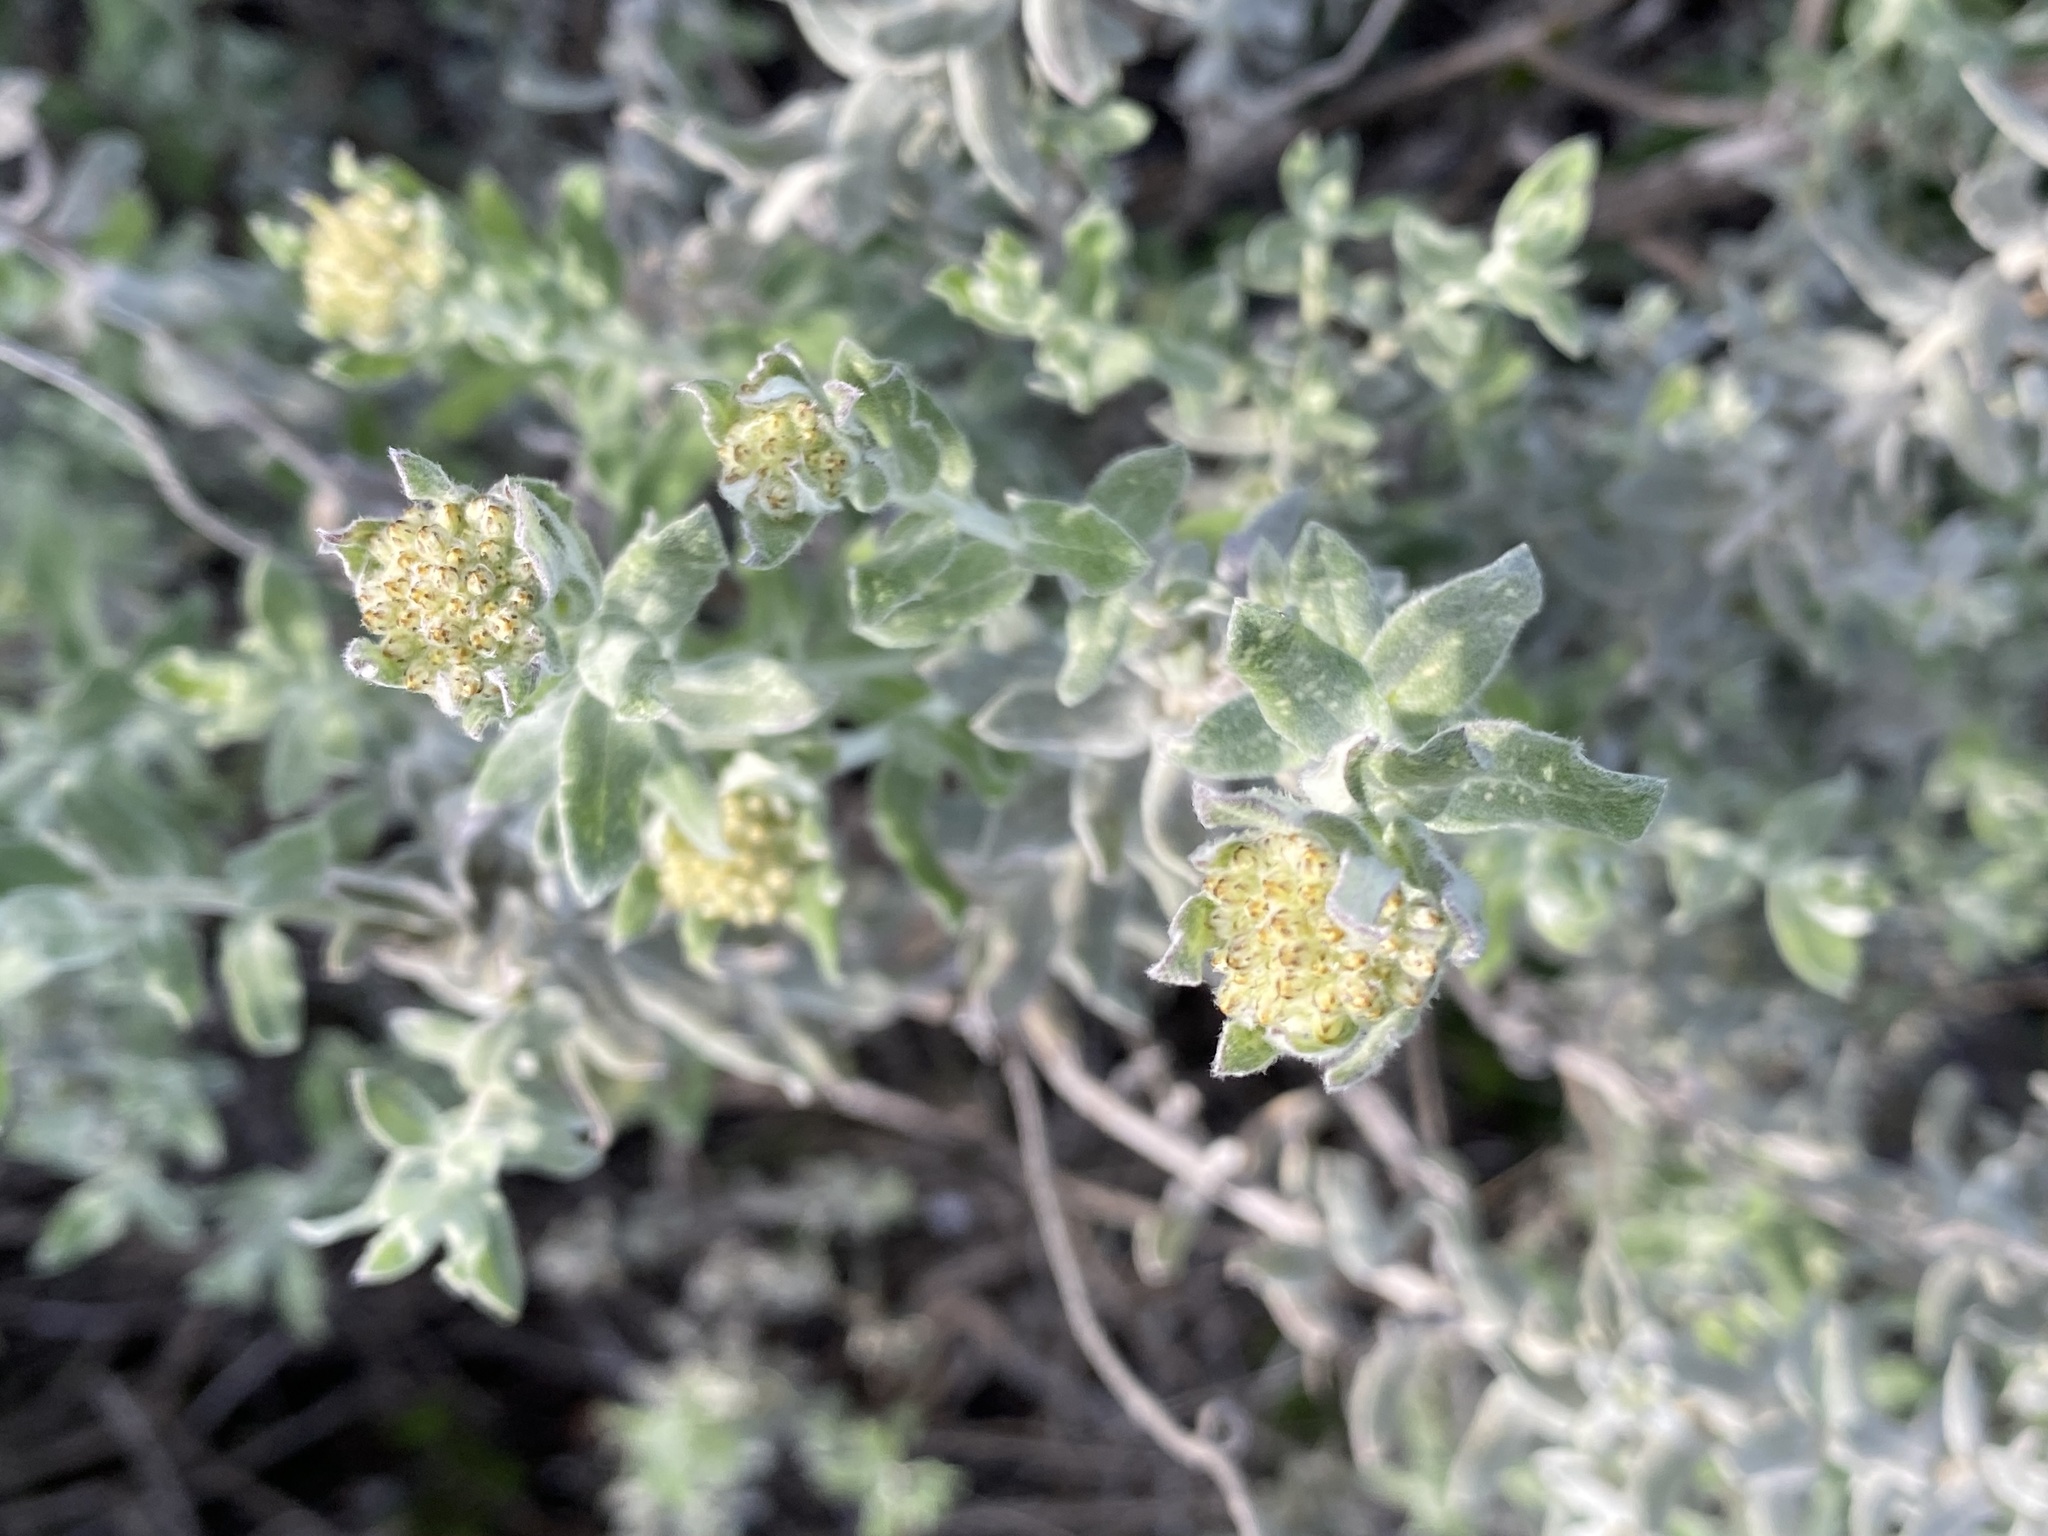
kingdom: Plantae
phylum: Tracheophyta
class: Magnoliopsida
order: Asterales
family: Asteraceae
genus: Helichrysum
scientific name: Helichrysum dasyanthum
